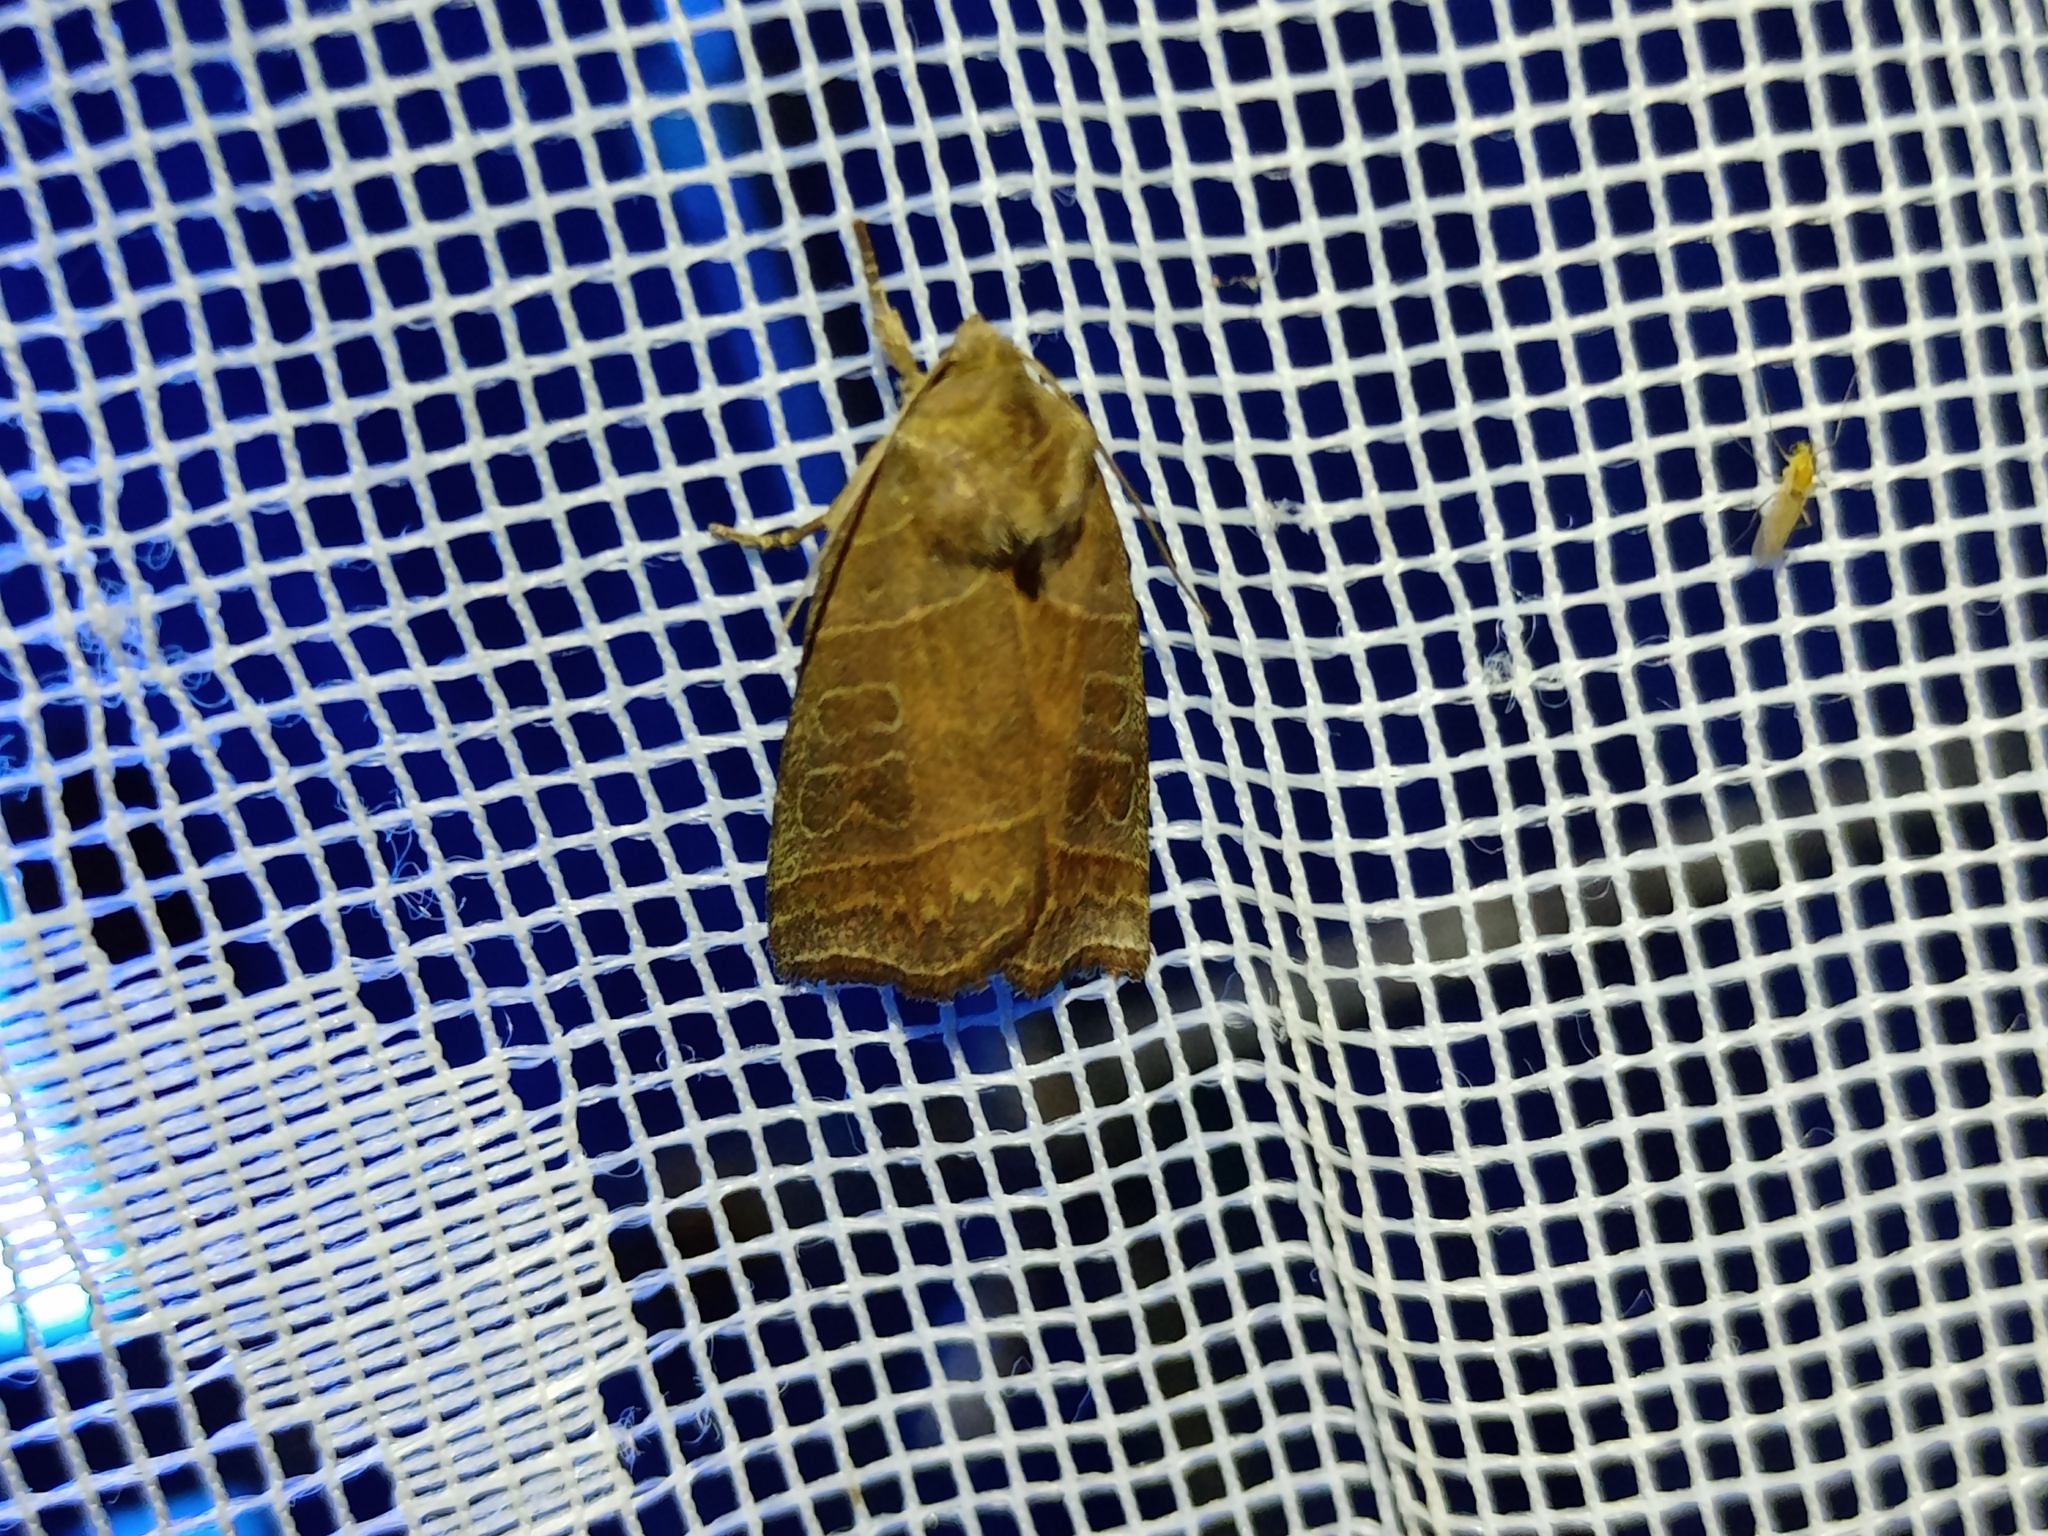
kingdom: Animalia
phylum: Arthropoda
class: Insecta
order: Lepidoptera
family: Noctuidae
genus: Ipimorpha
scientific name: Ipimorpha retusa
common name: Double kidney
